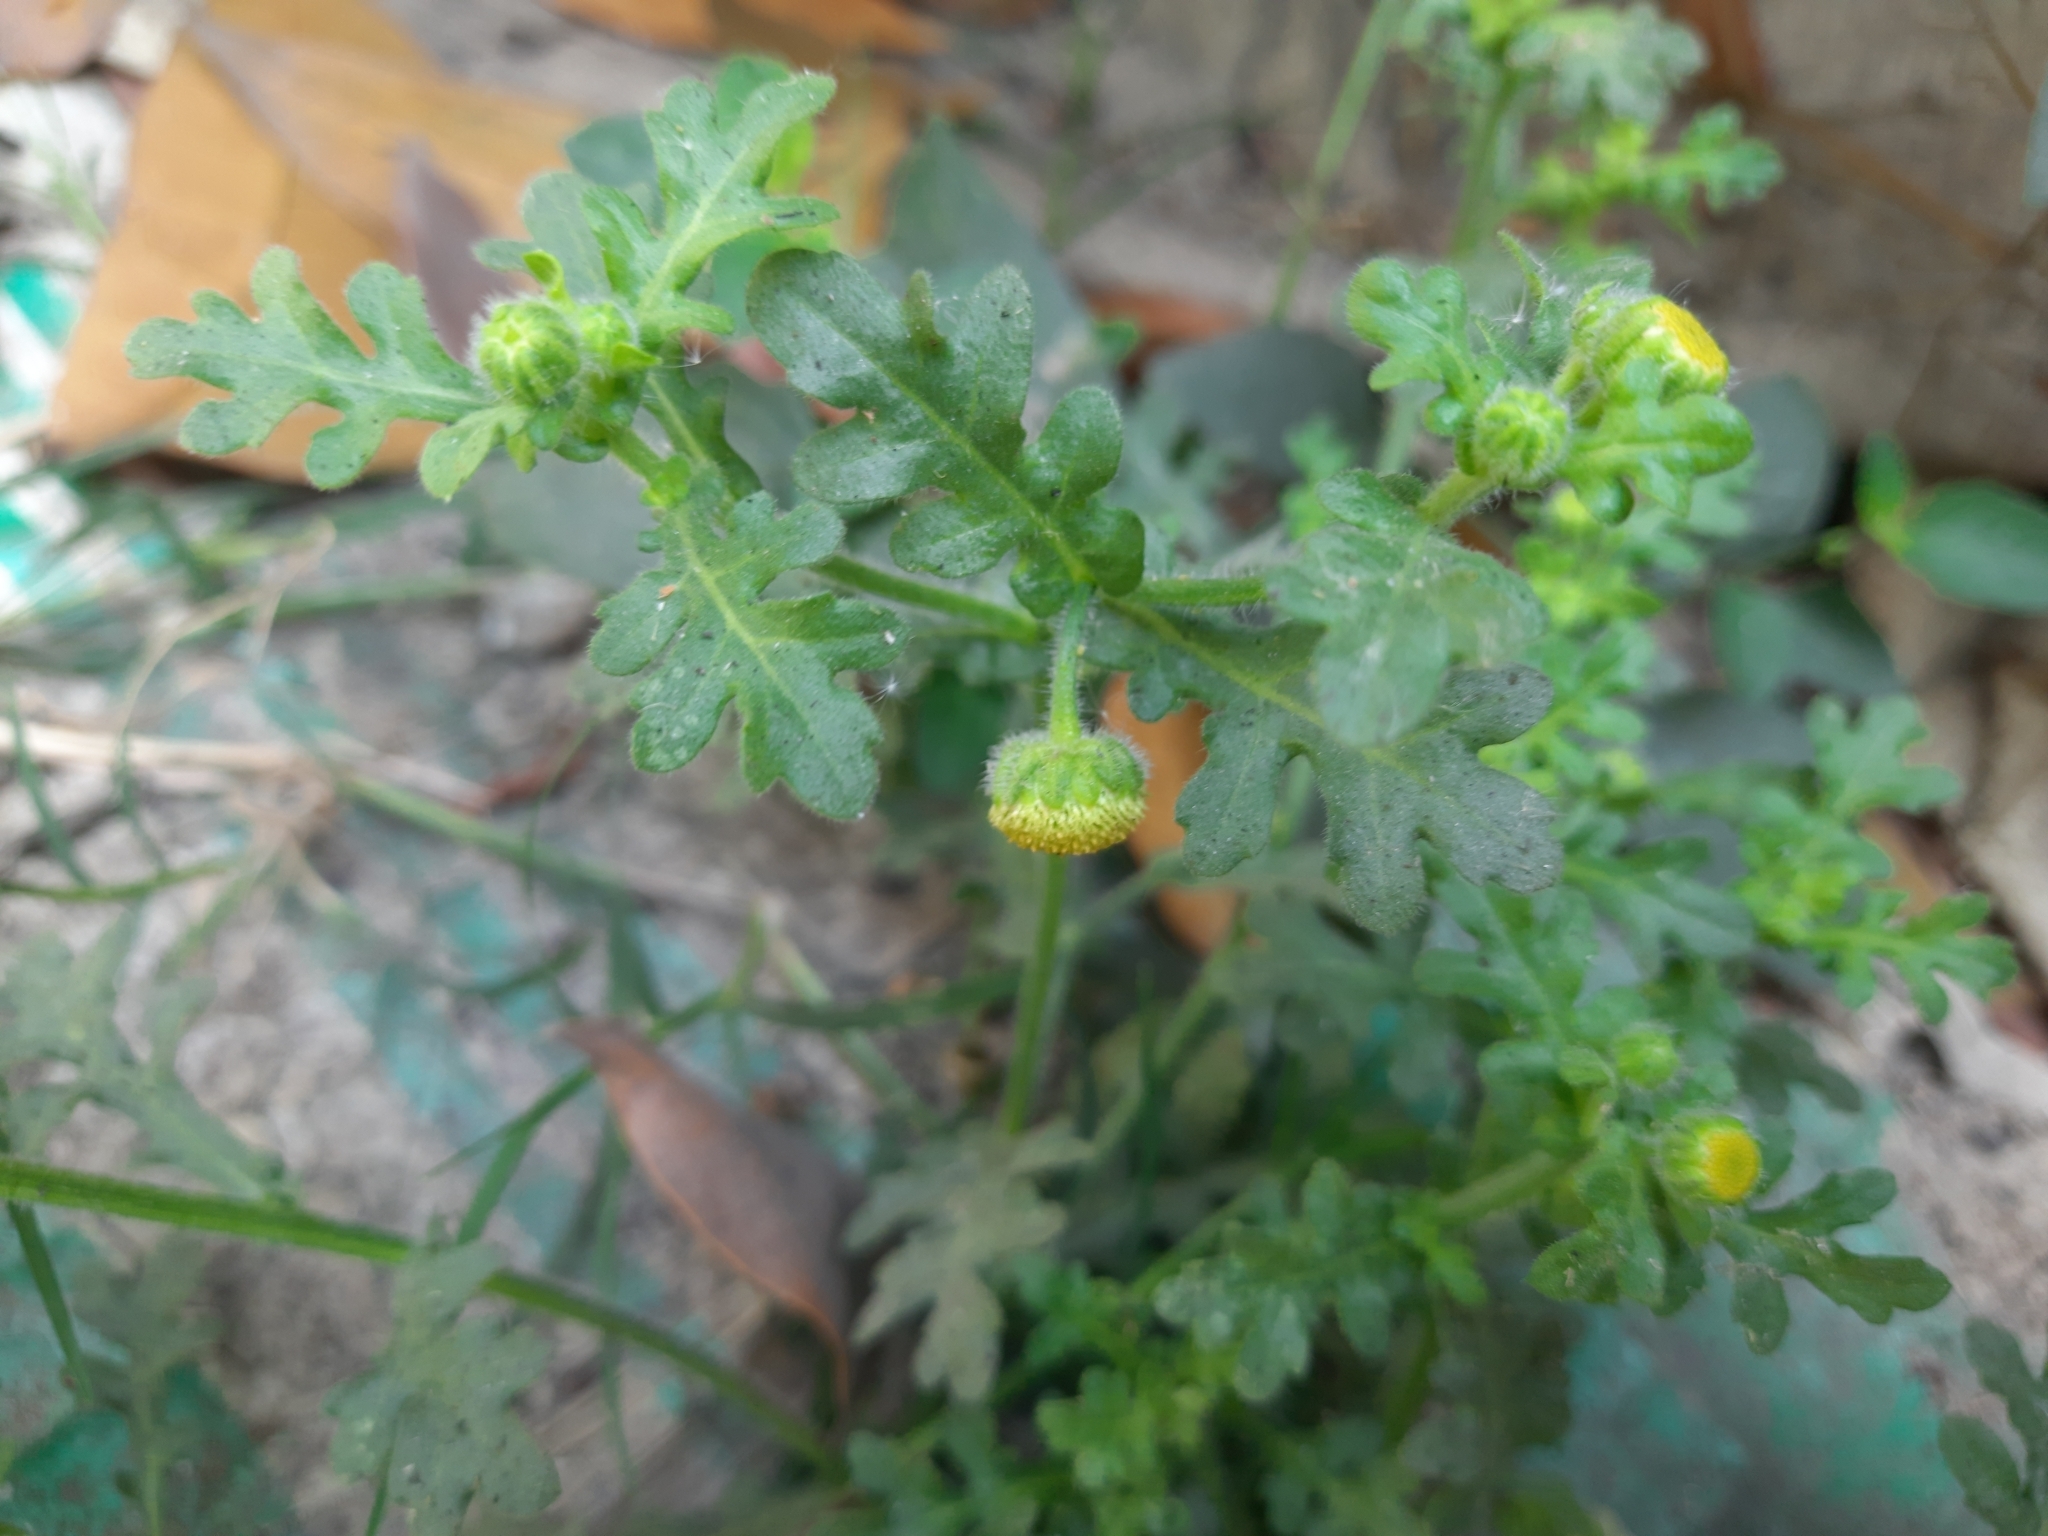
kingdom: Plantae
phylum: Tracheophyta
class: Magnoliopsida
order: Asterales
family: Asteraceae
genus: Grangea
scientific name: Grangea maderaspatana
